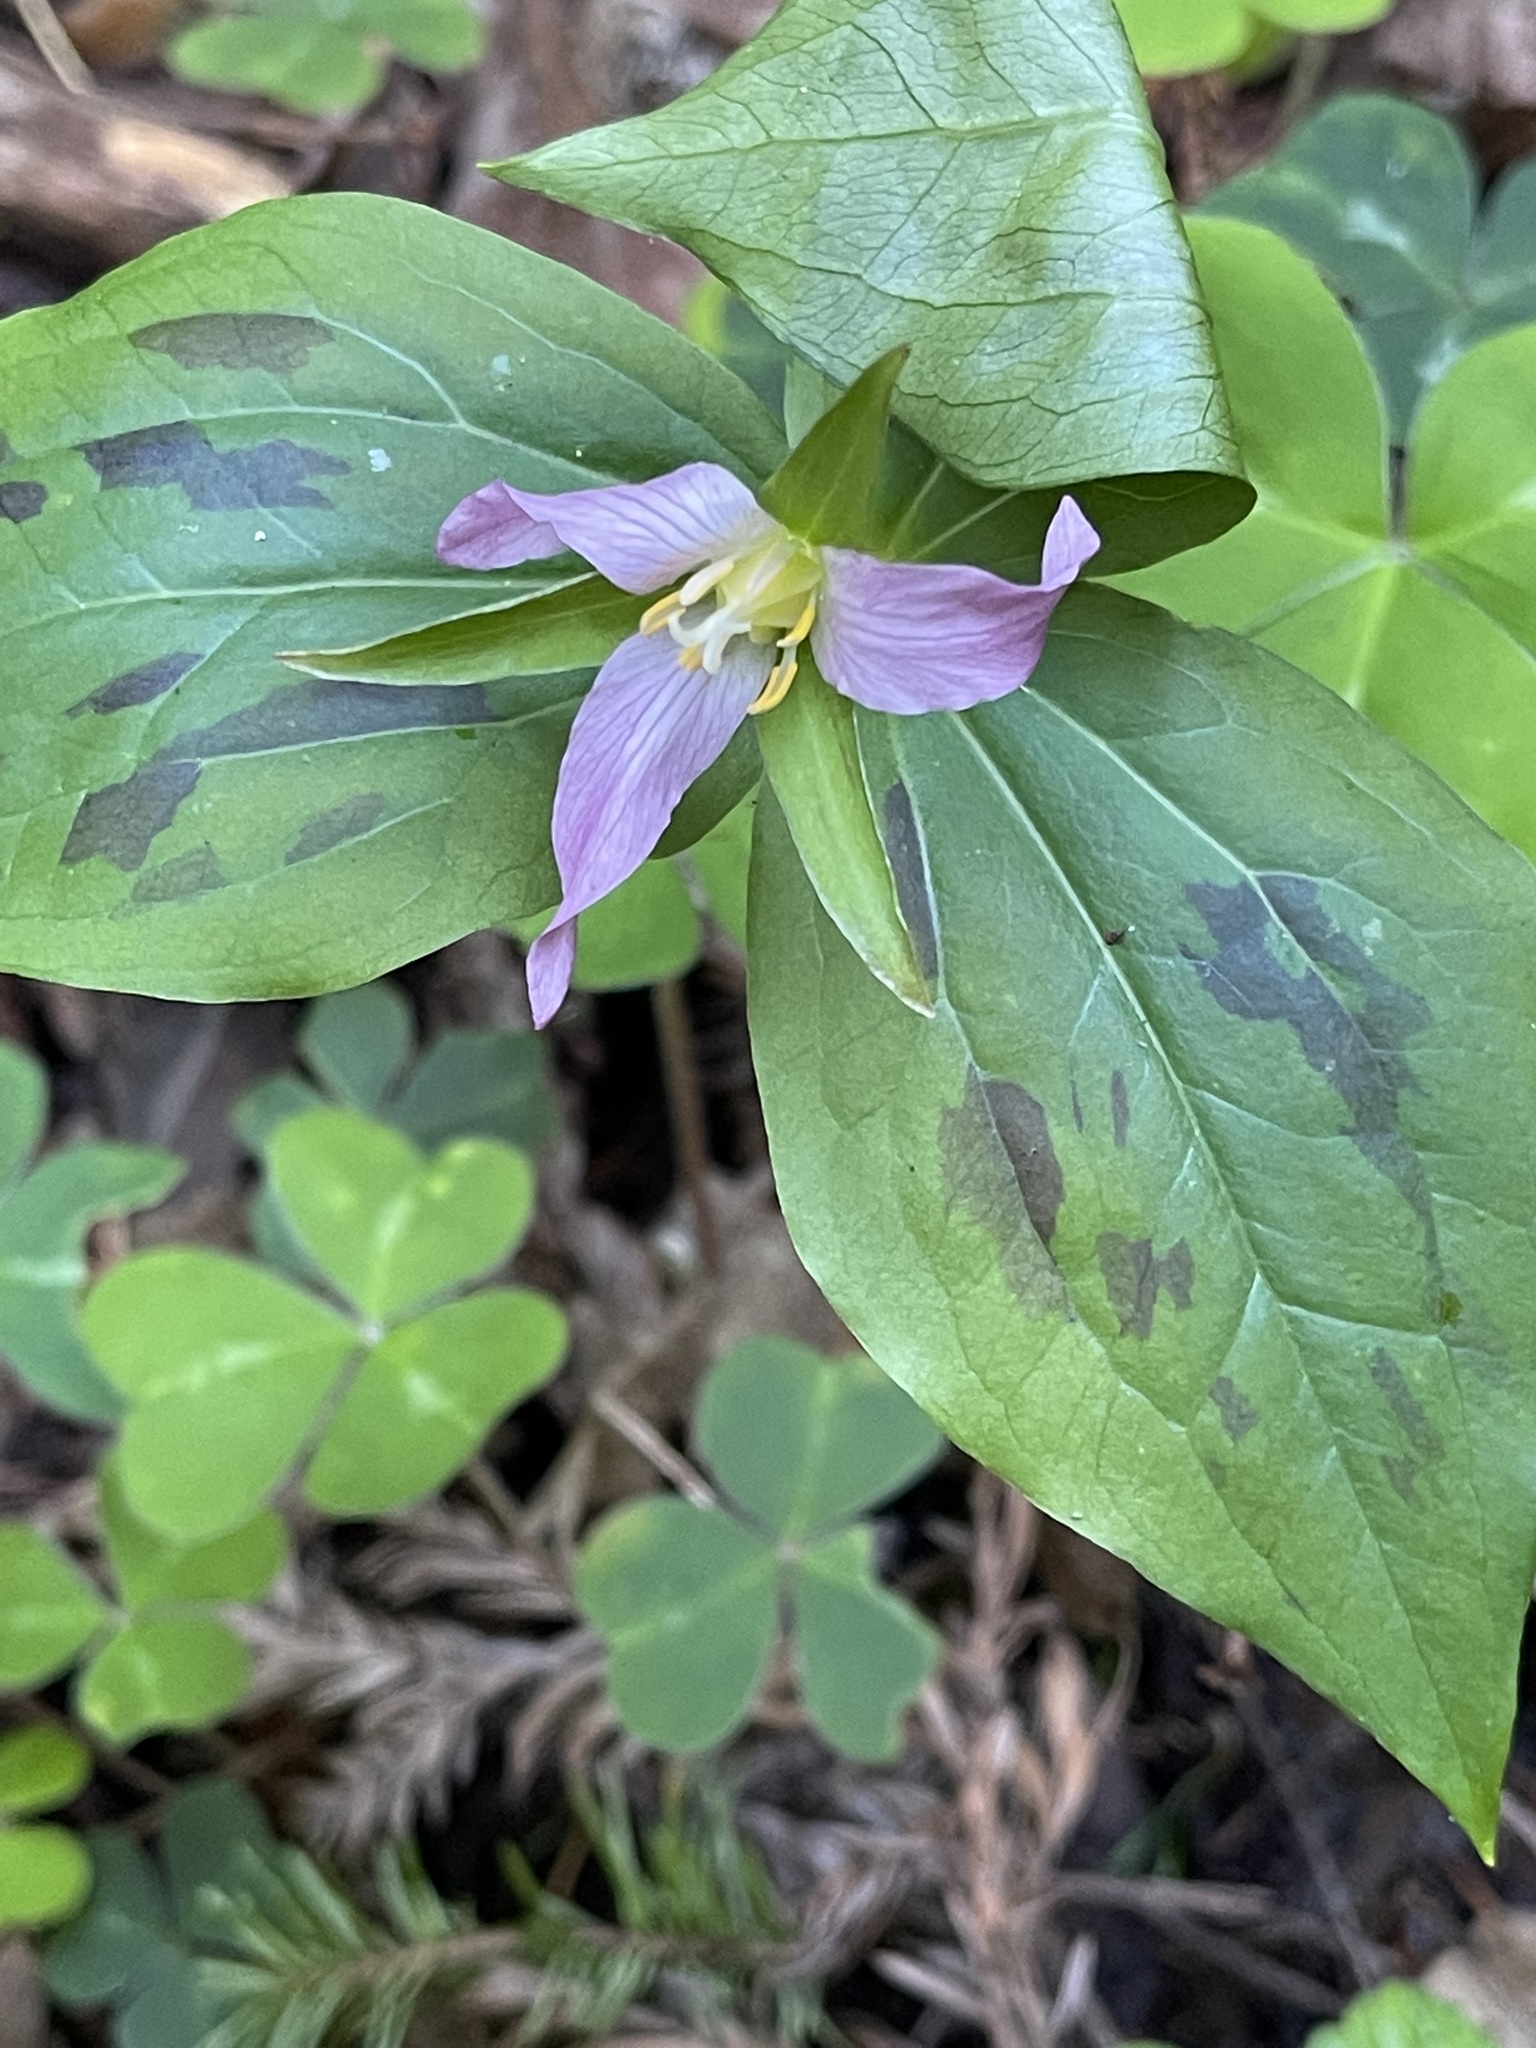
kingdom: Plantae
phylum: Tracheophyta
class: Liliopsida
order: Liliales
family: Melanthiaceae
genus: Trillium
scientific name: Trillium ovatum
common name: Pacific trillium
